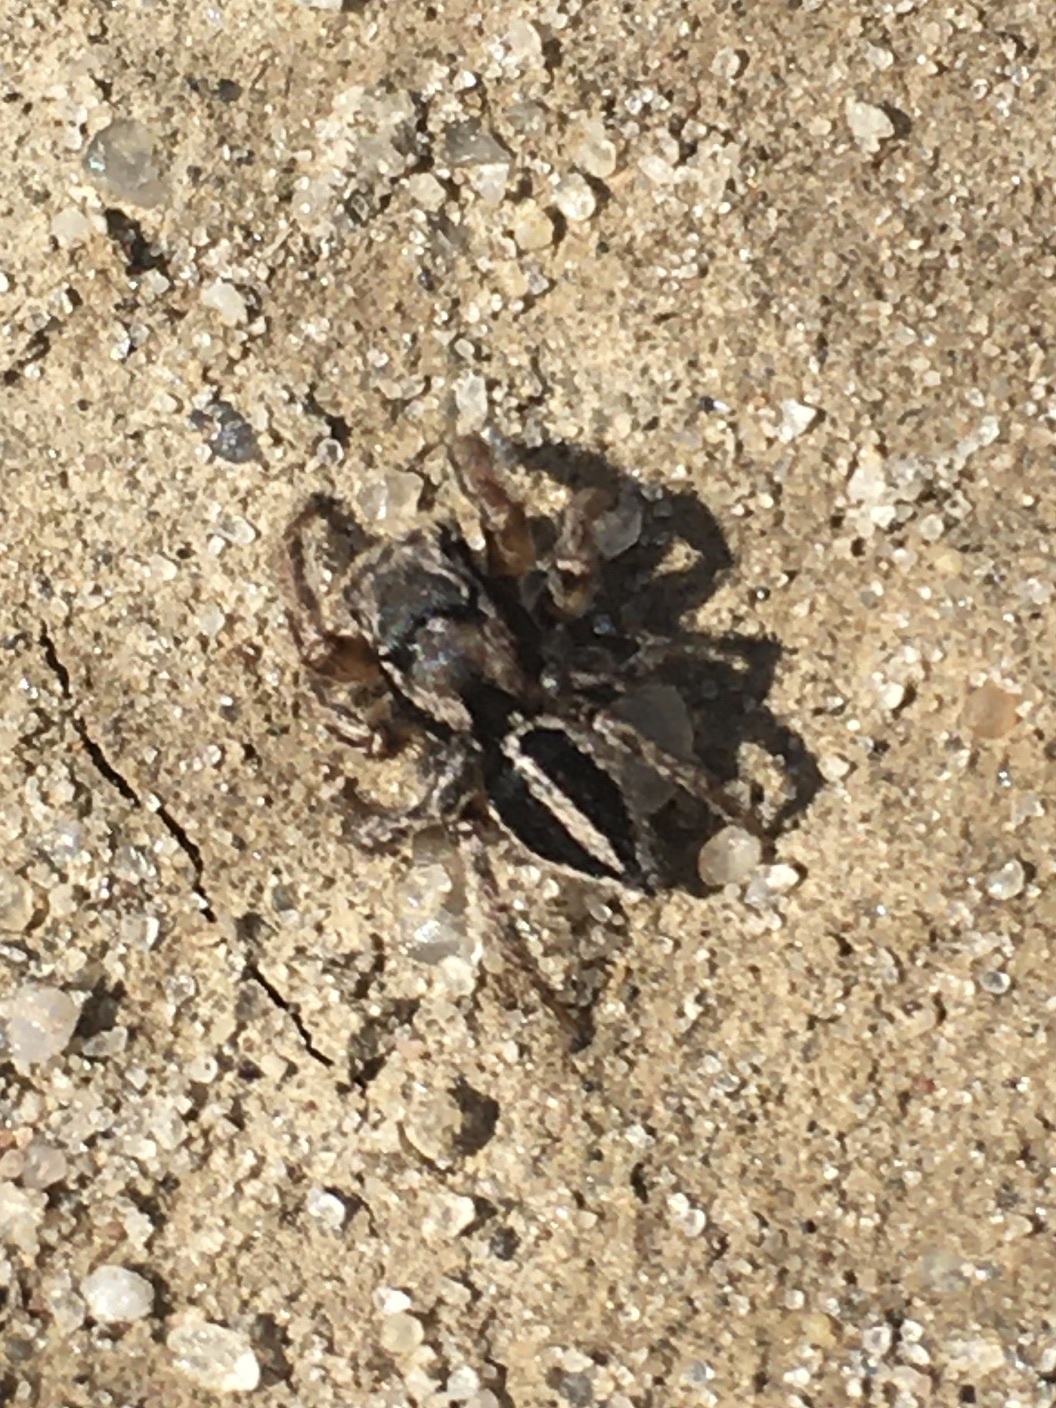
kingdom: Animalia
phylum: Arthropoda
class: Arachnida
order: Araneae
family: Salticidae
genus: Habronattus
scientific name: Habronattus orbus
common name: Orbus paradise spider
